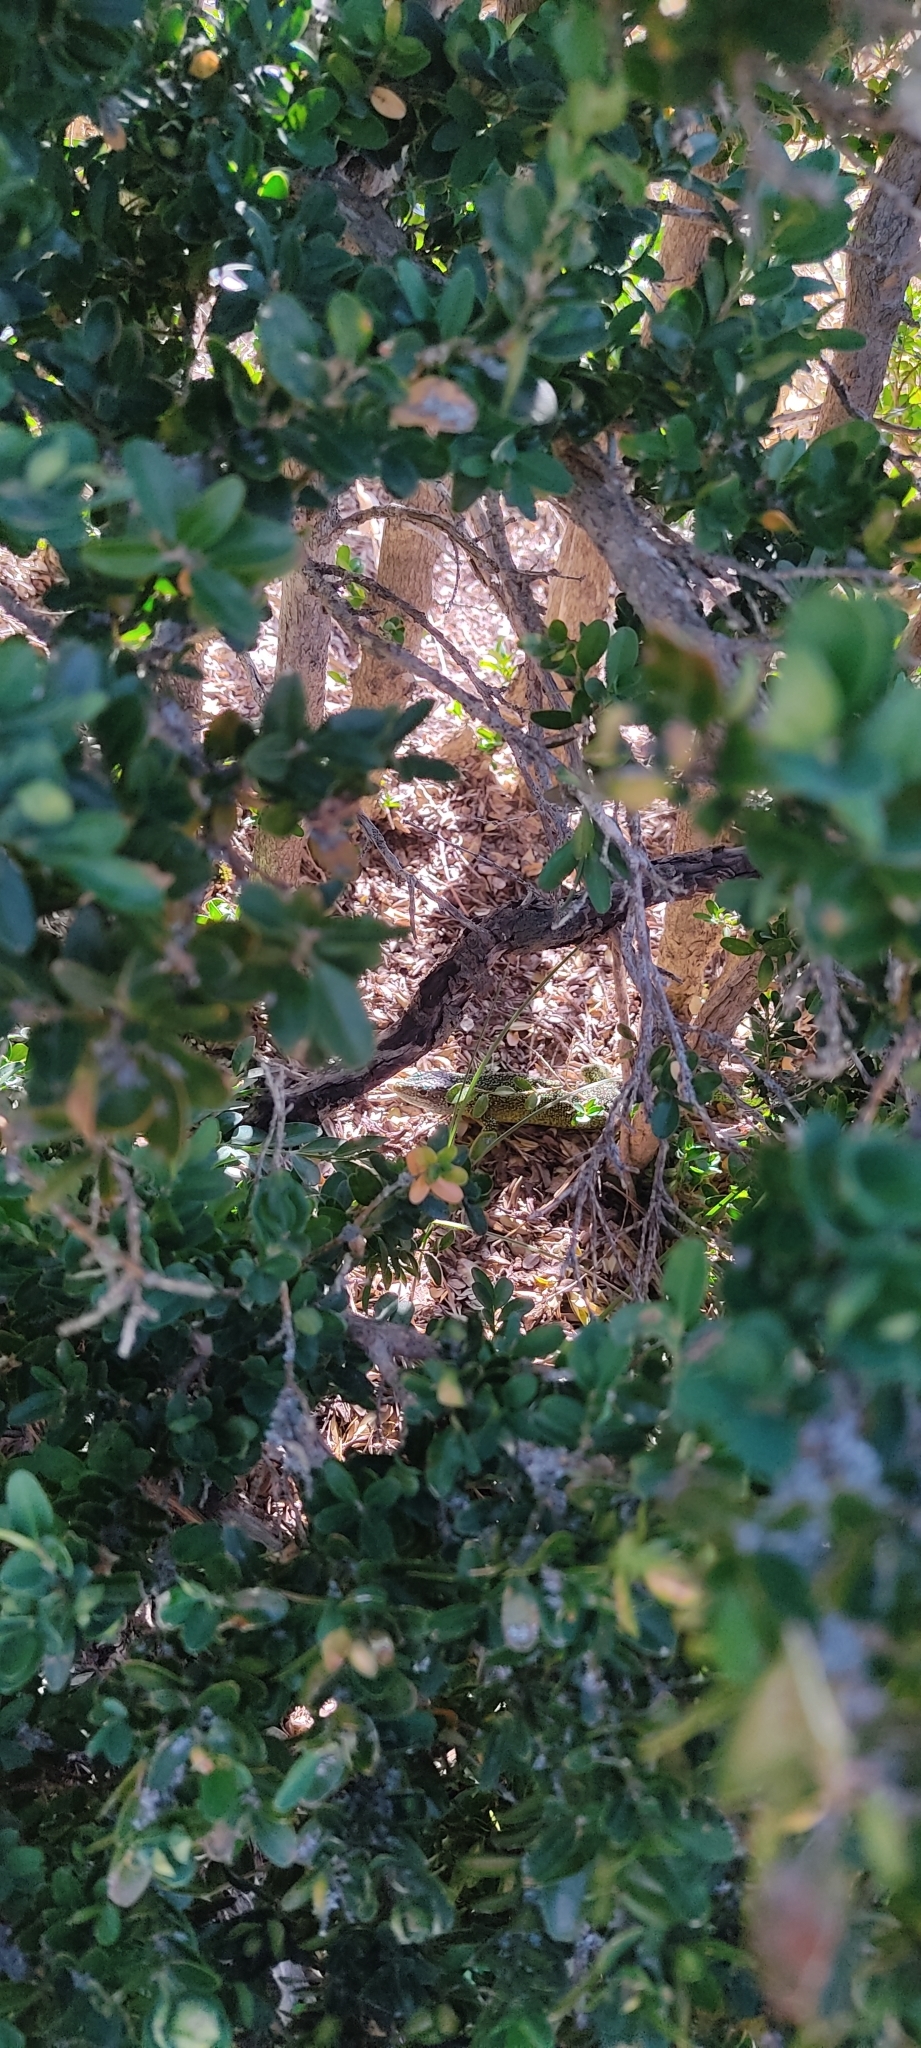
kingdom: Animalia
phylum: Chordata
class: Squamata
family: Lacertidae
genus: Lacerta
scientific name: Lacerta bilineata
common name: Western green lizard
